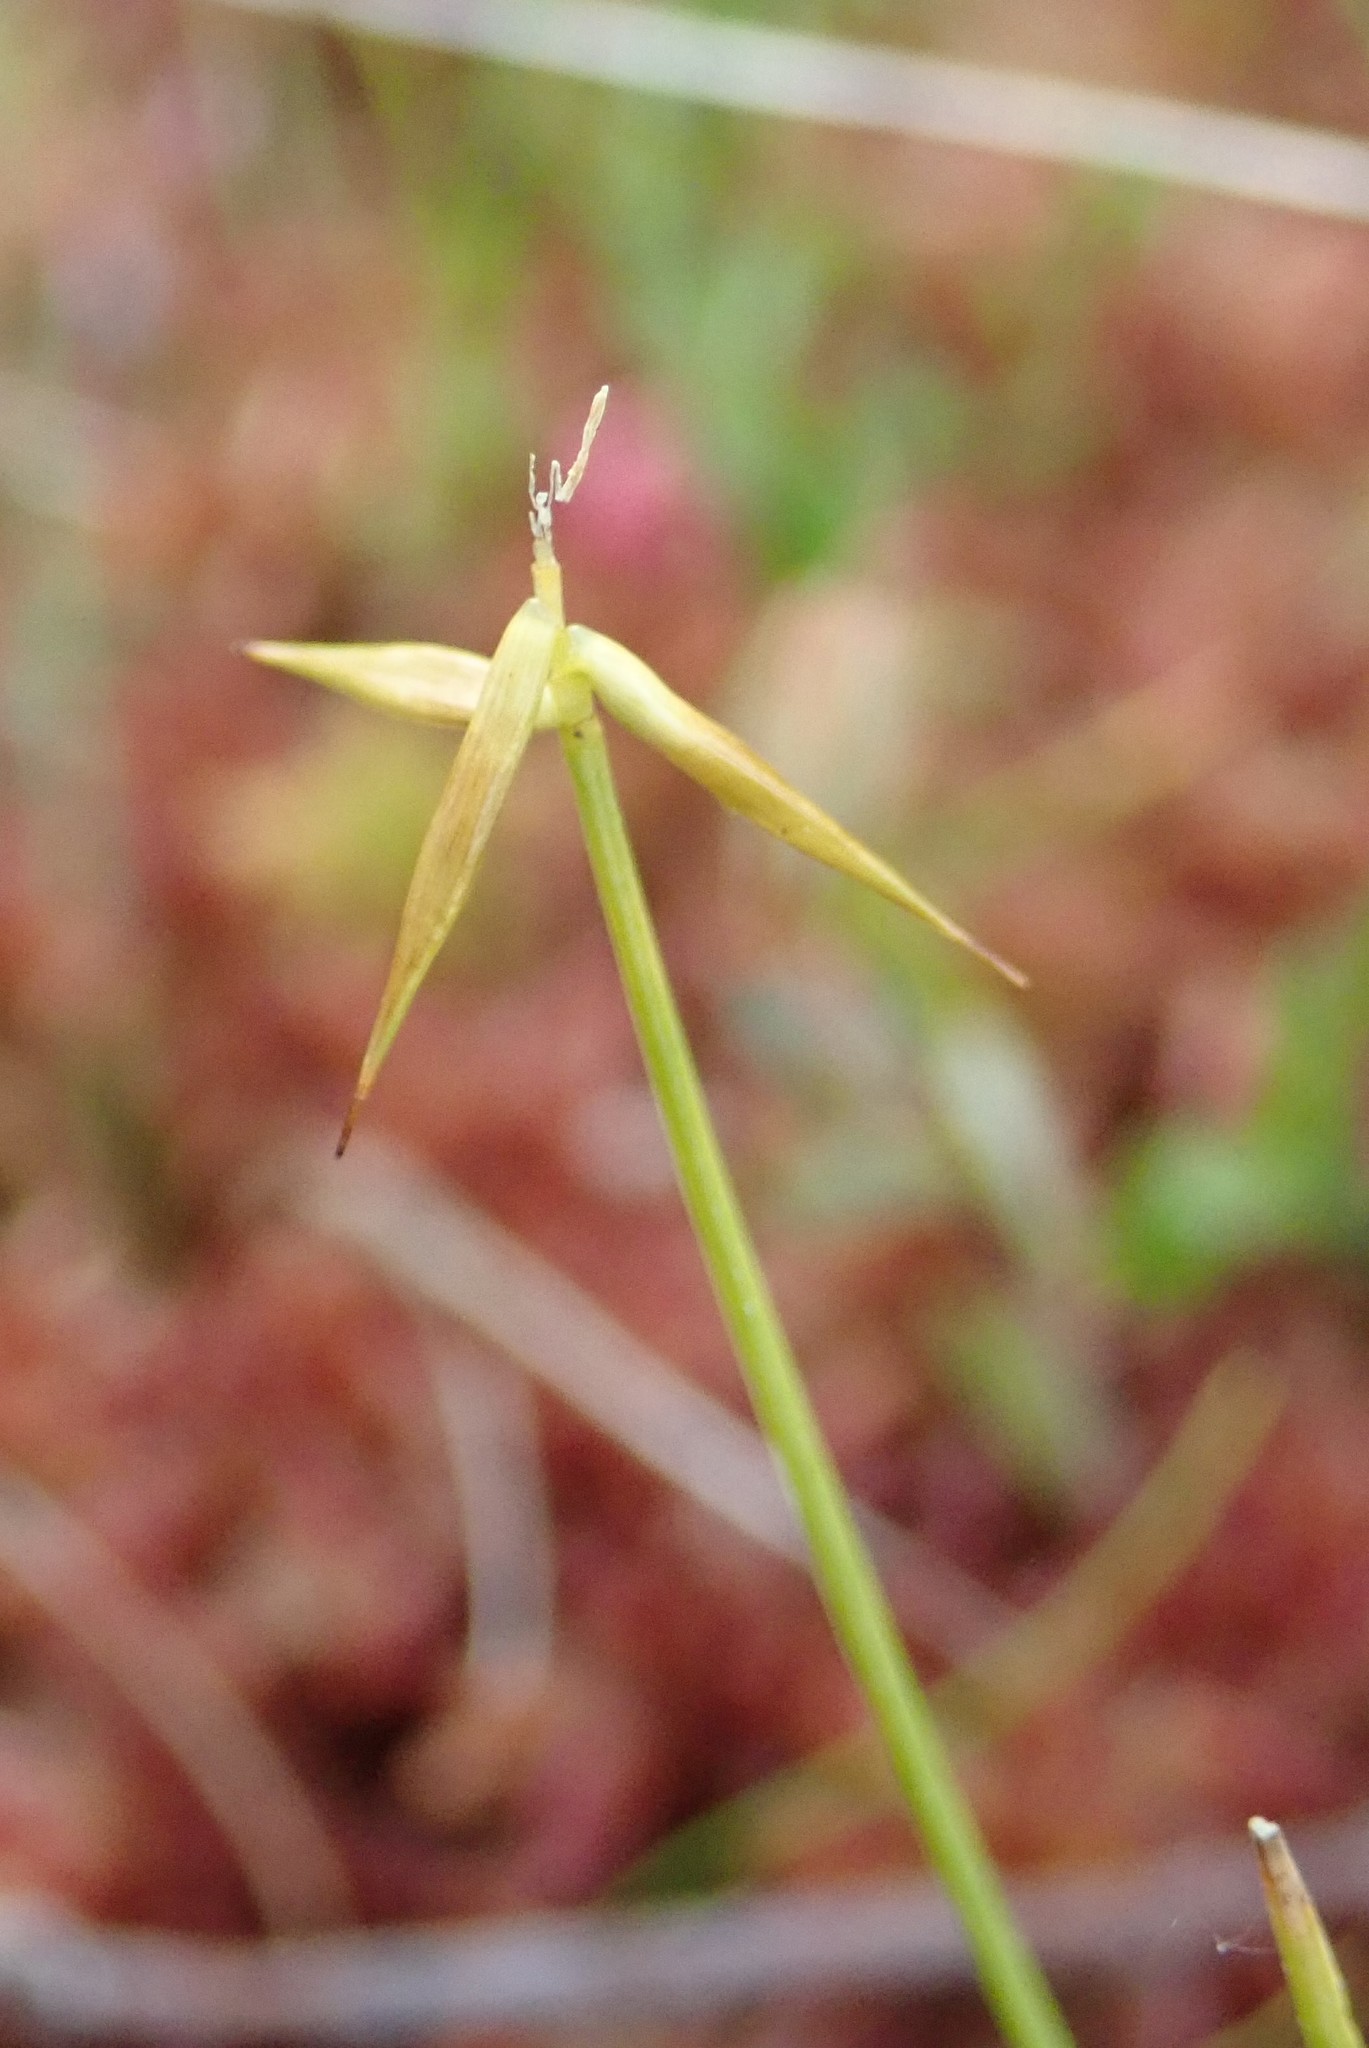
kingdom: Plantae
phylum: Tracheophyta
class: Liliopsida
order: Poales
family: Cyperaceae
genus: Carex
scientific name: Carex pauciflora
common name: Few-flowered sedge
